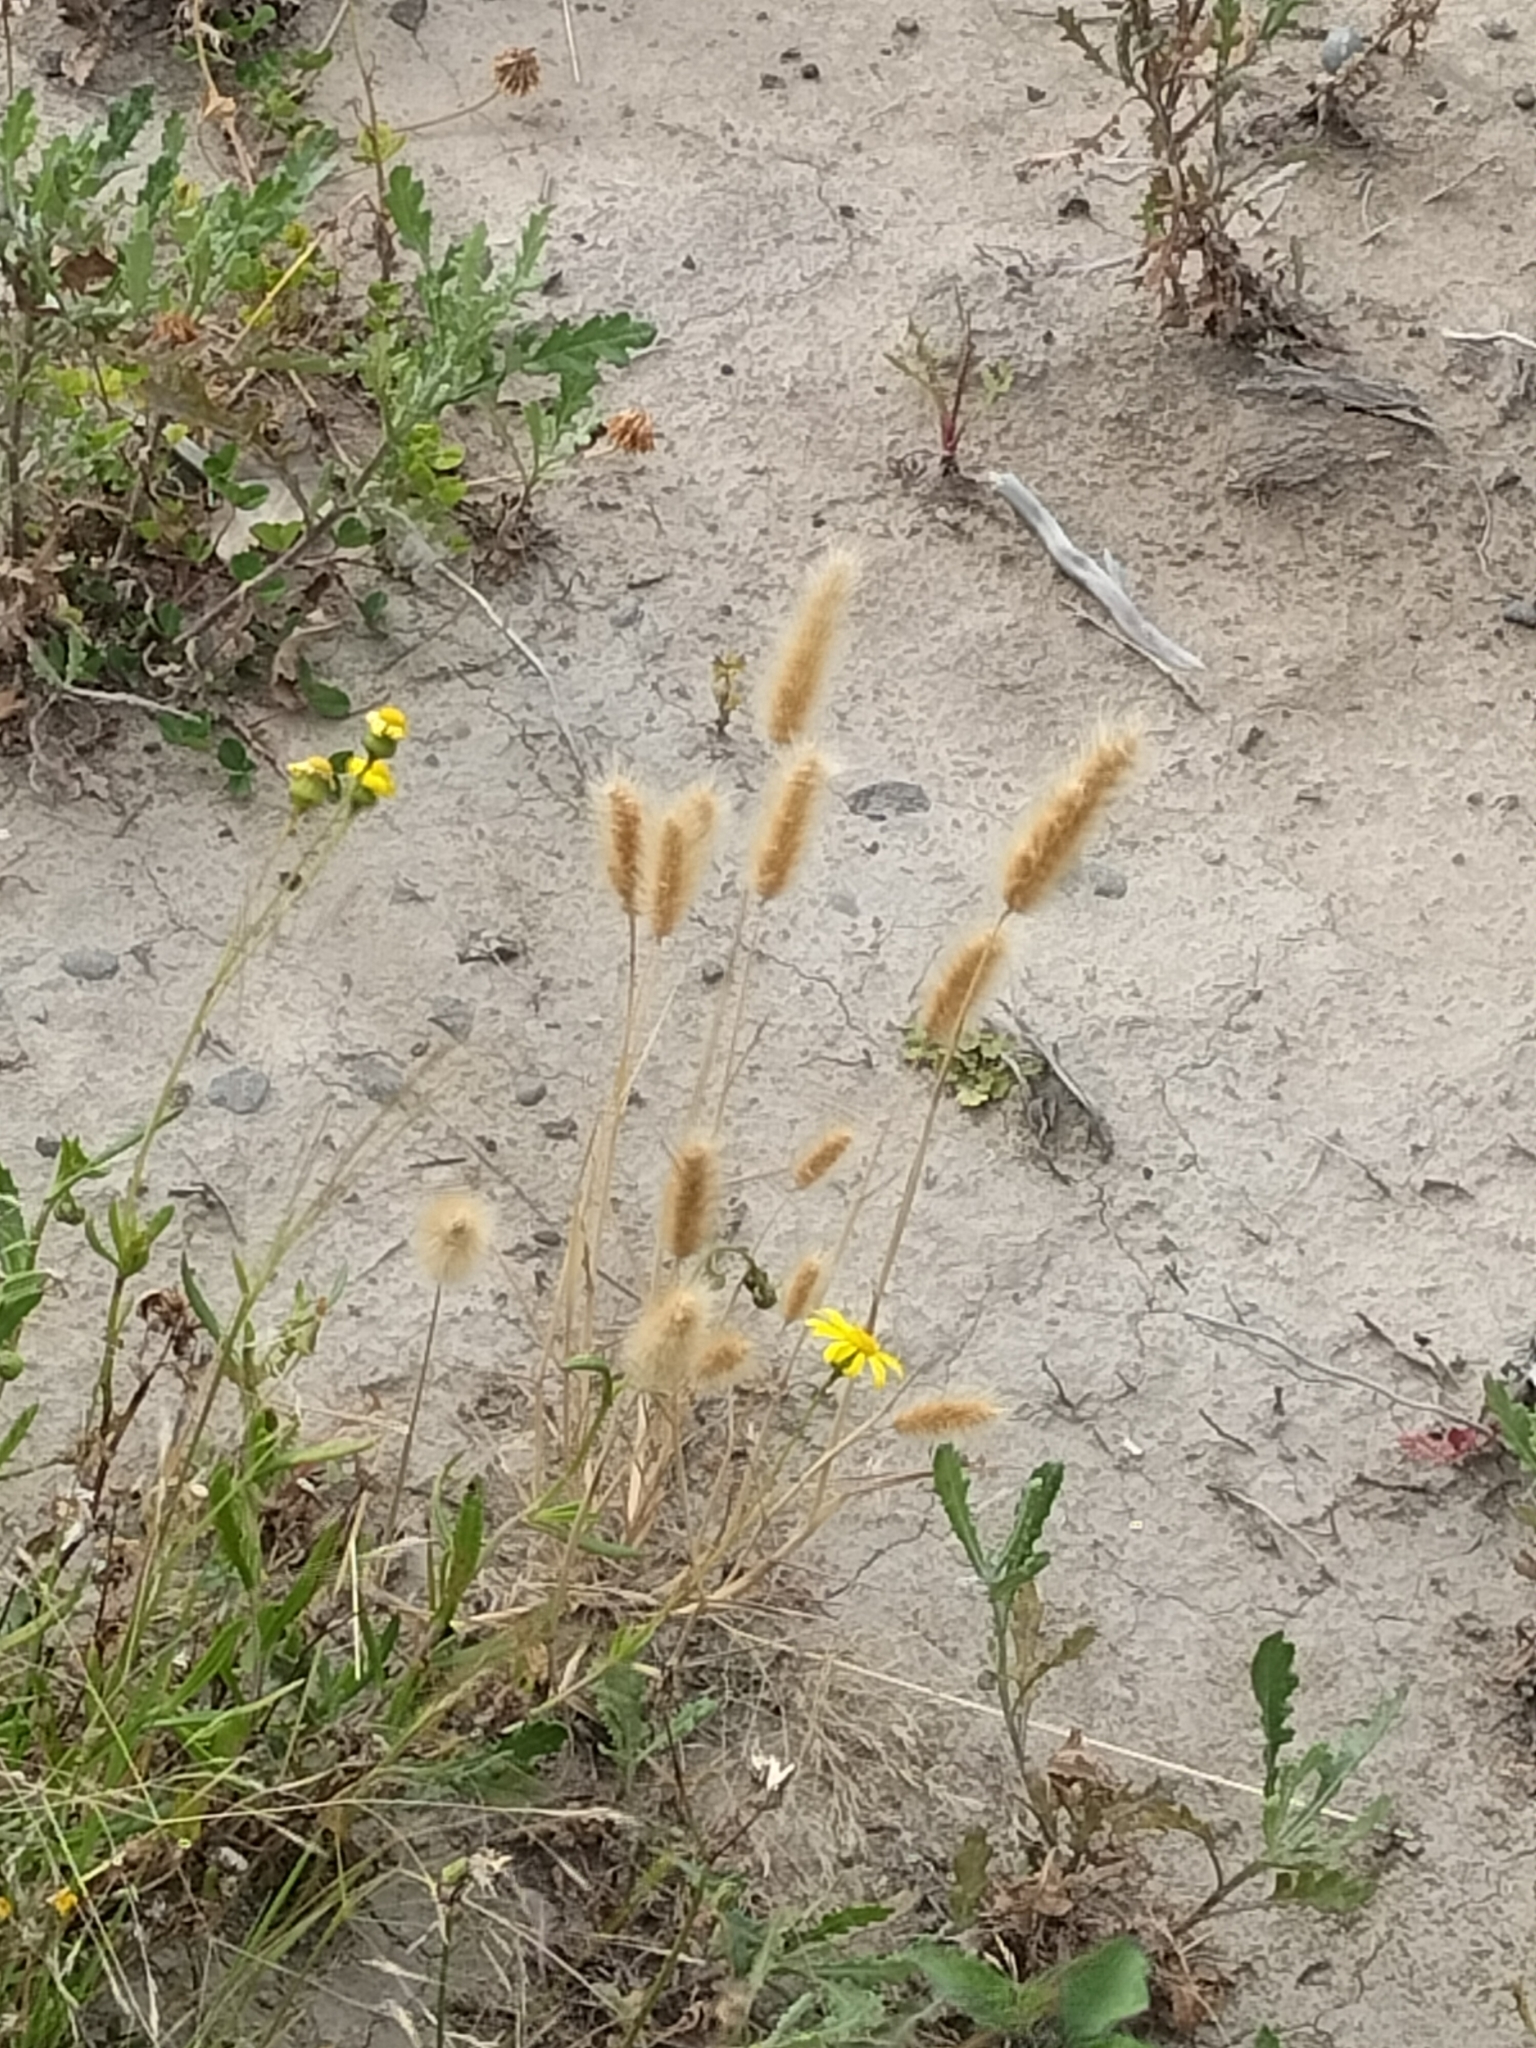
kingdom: Plantae
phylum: Tracheophyta
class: Liliopsida
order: Poales
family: Poaceae
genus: Polypogon
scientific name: Polypogon monspeliensis
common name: Annual rabbitsfoot grass
